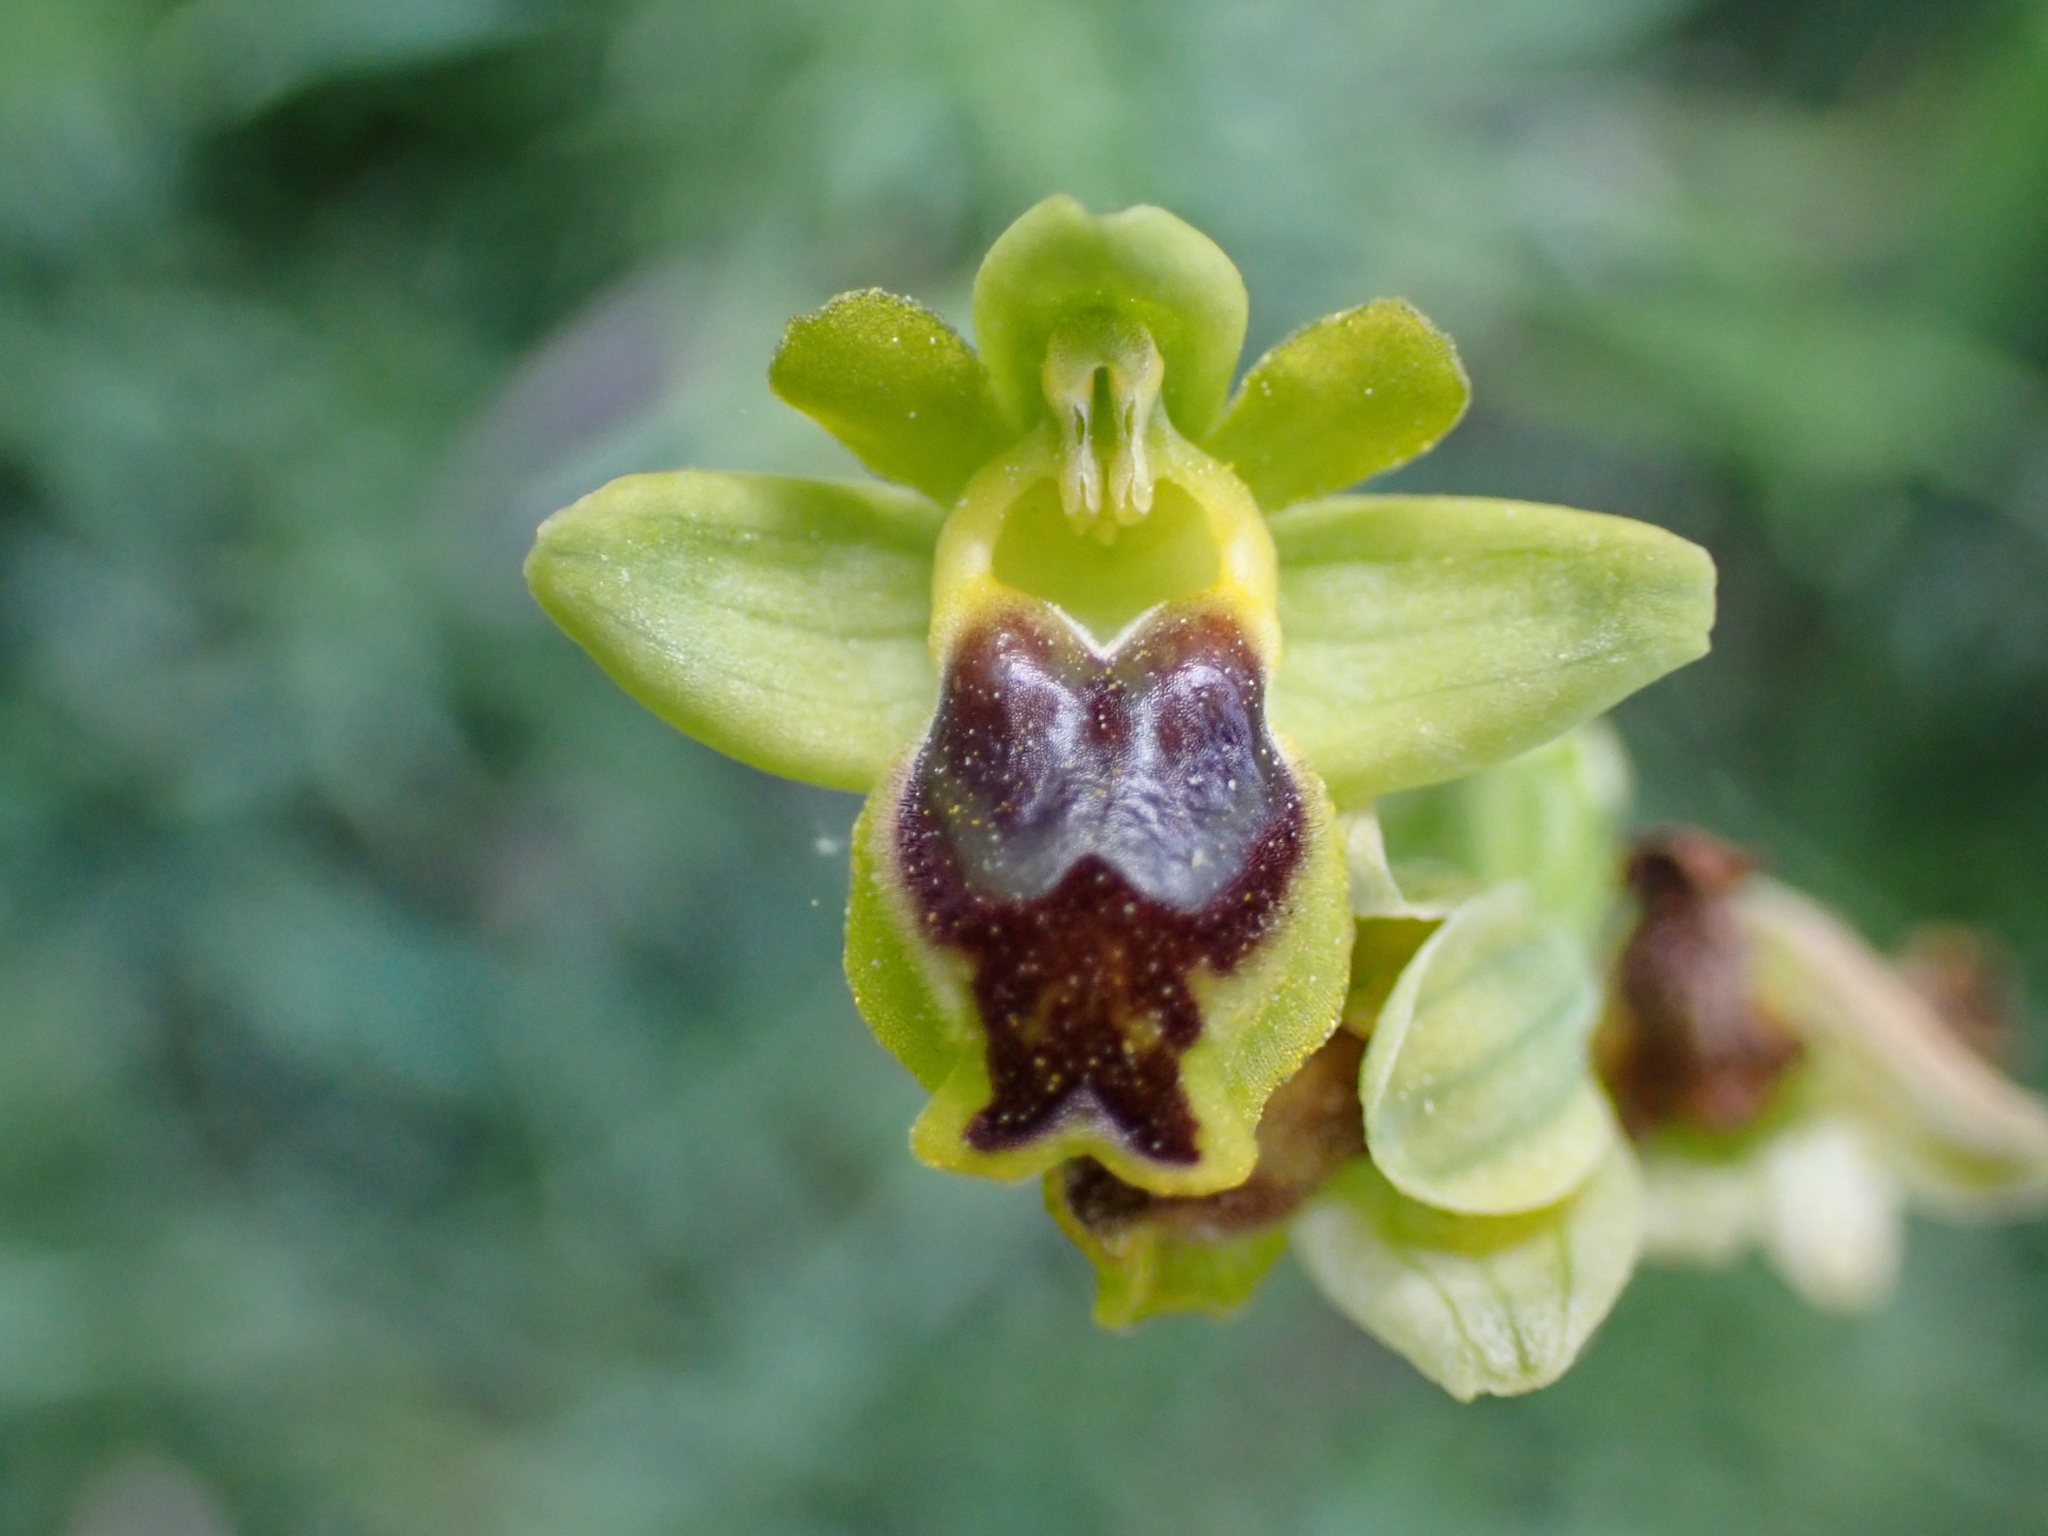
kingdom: Plantae
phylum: Tracheophyta
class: Liliopsida
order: Asparagales
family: Orchidaceae
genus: Ophrys
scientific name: Ophrys lutea
